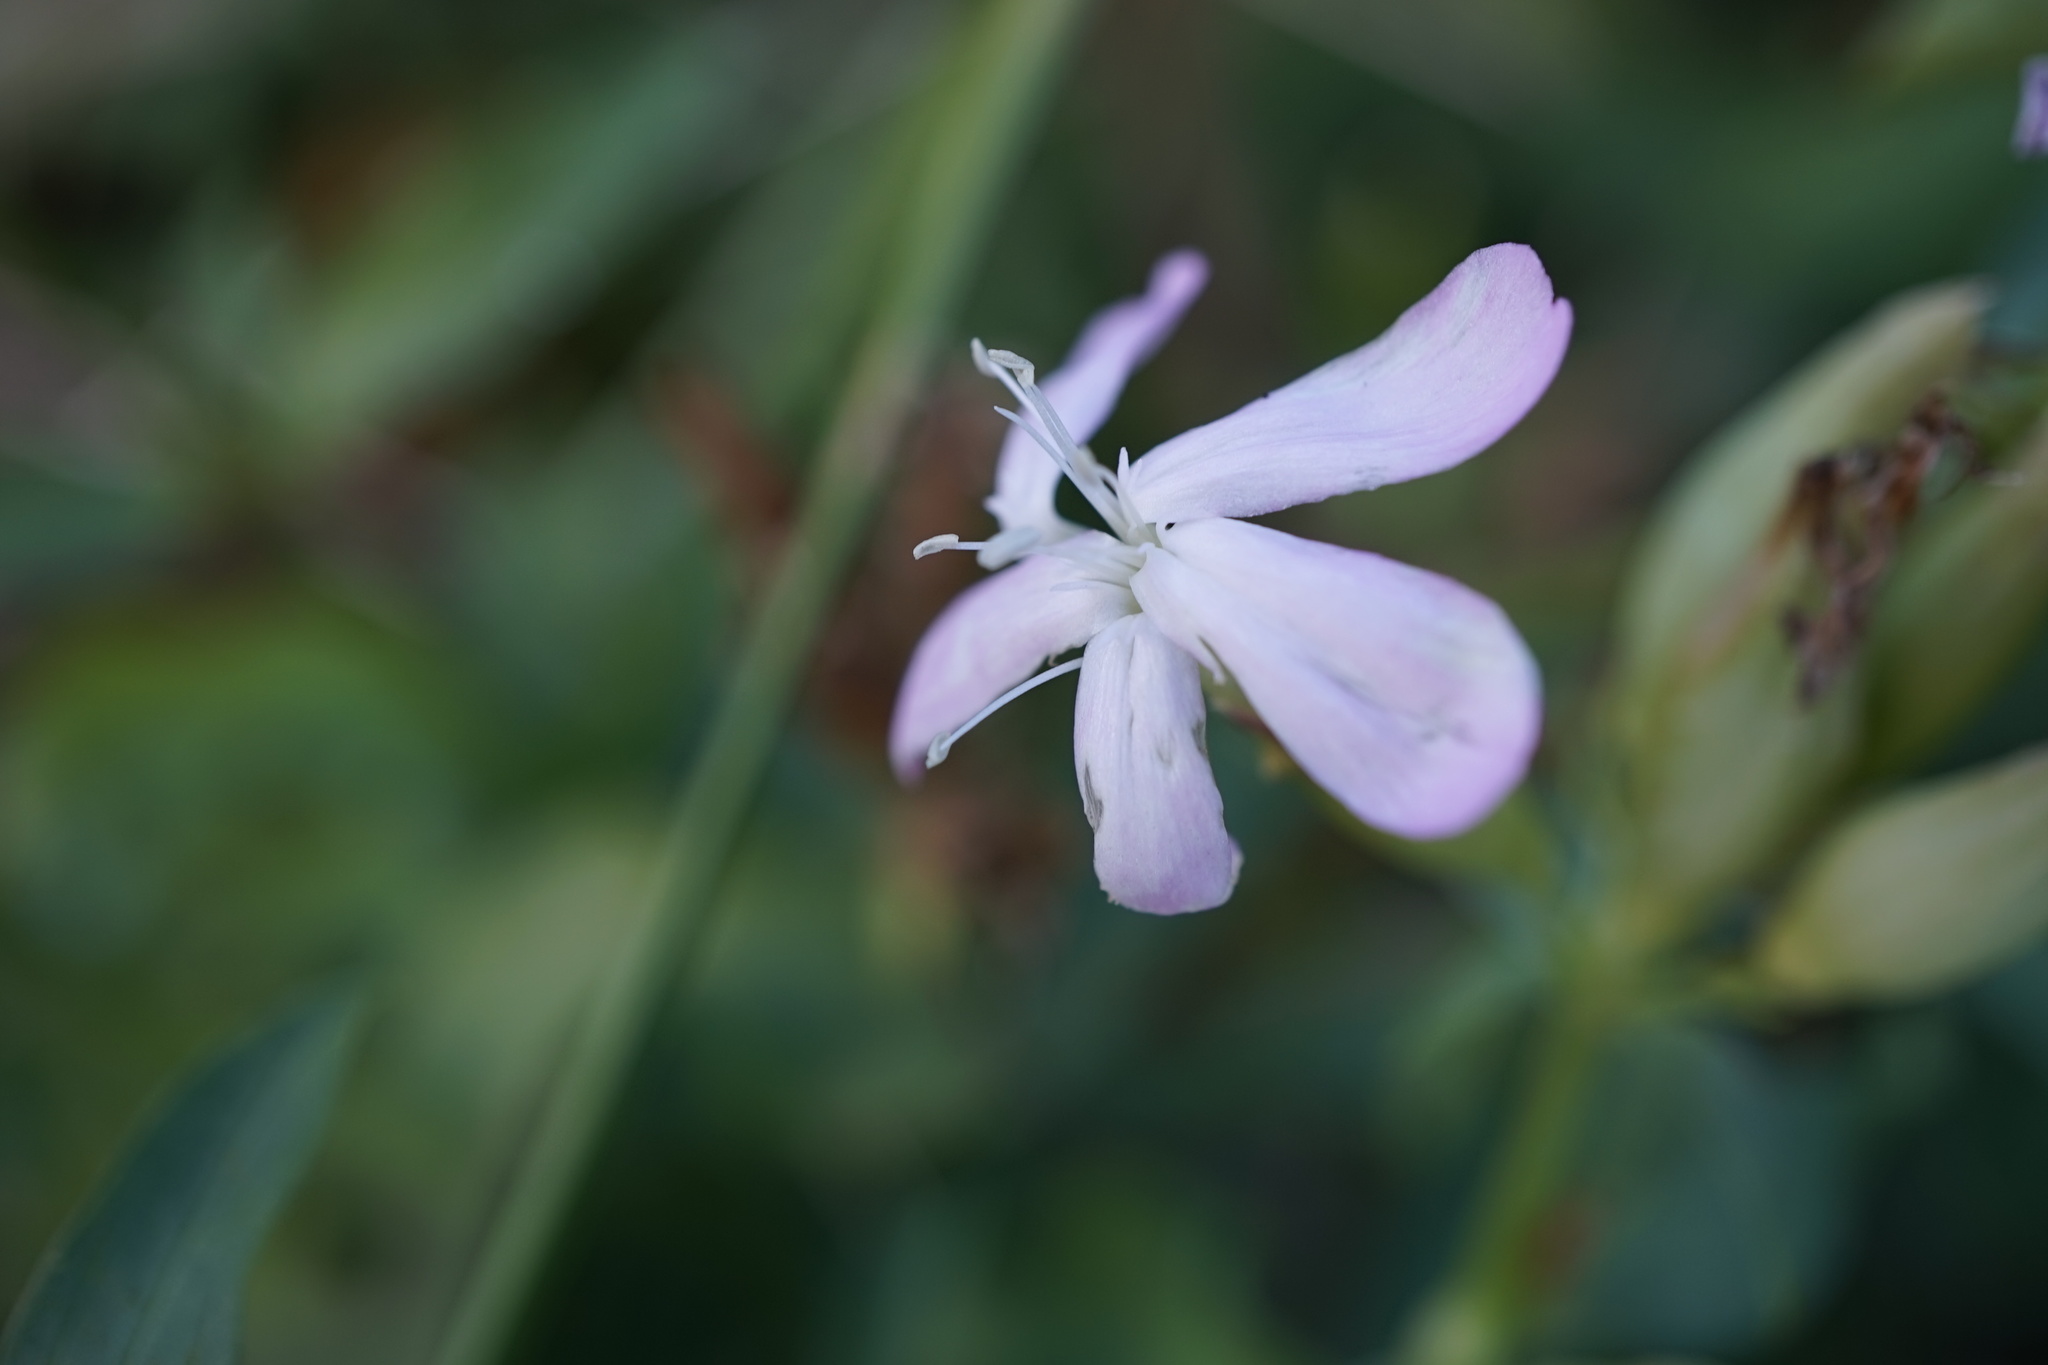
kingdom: Plantae
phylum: Tracheophyta
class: Magnoliopsida
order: Caryophyllales
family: Caryophyllaceae
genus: Saponaria
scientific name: Saponaria officinalis
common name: Soapwort
